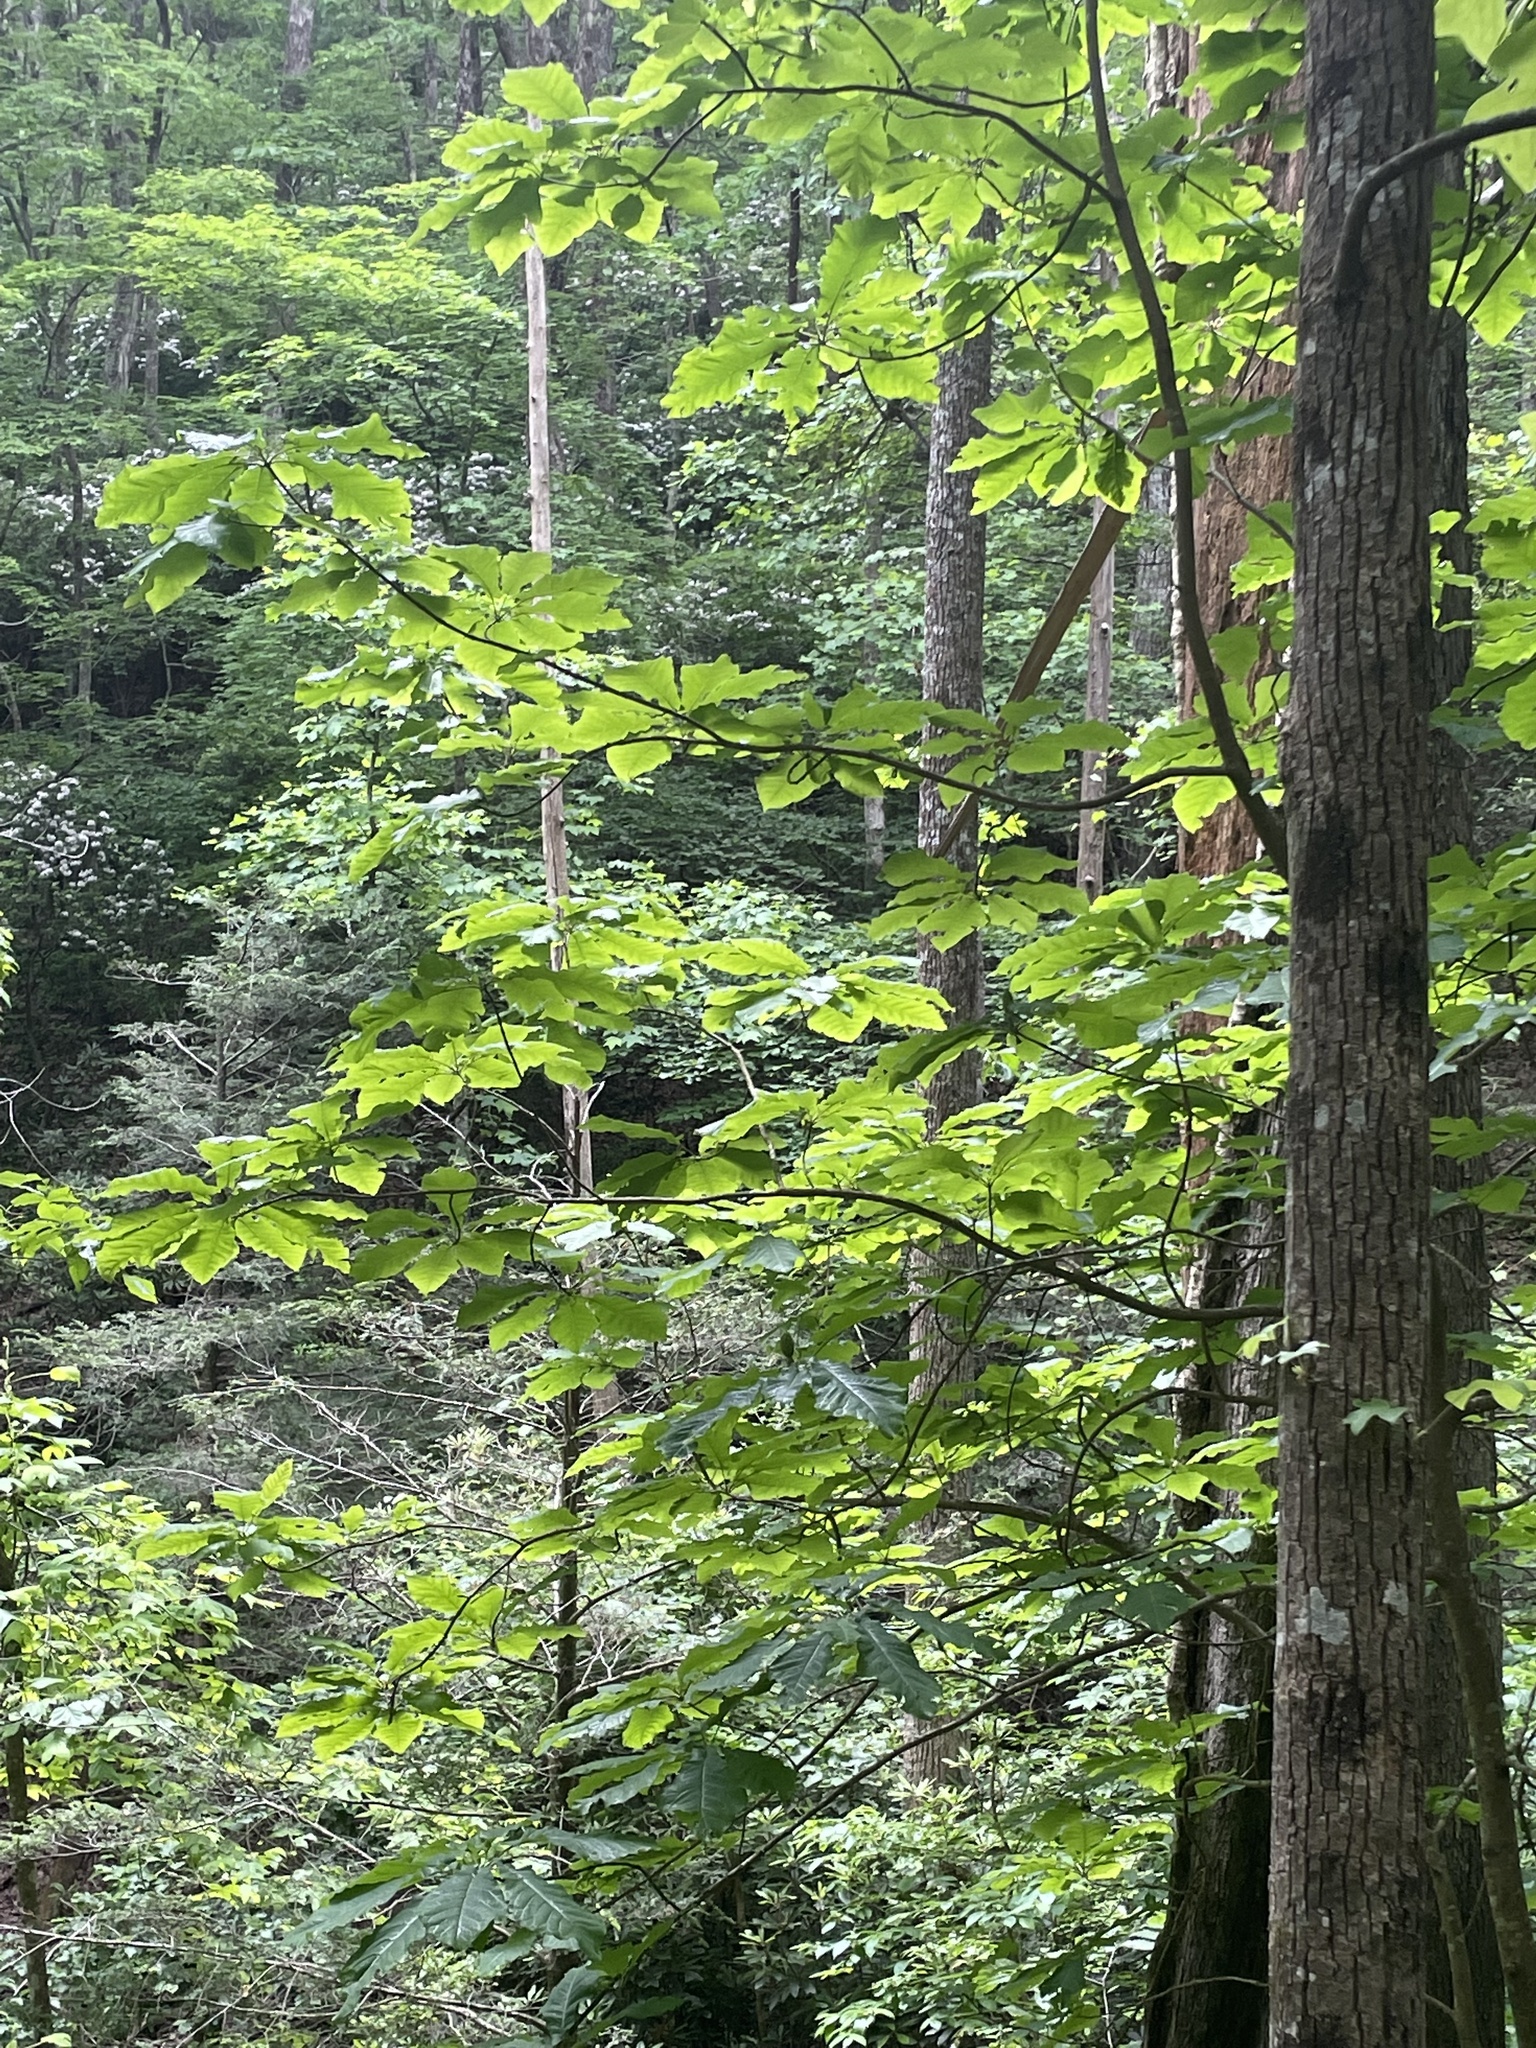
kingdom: Plantae
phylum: Tracheophyta
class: Magnoliopsida
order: Magnoliales
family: Magnoliaceae
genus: Magnolia
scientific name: Magnolia fraseri
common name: Fraser's magnolia
